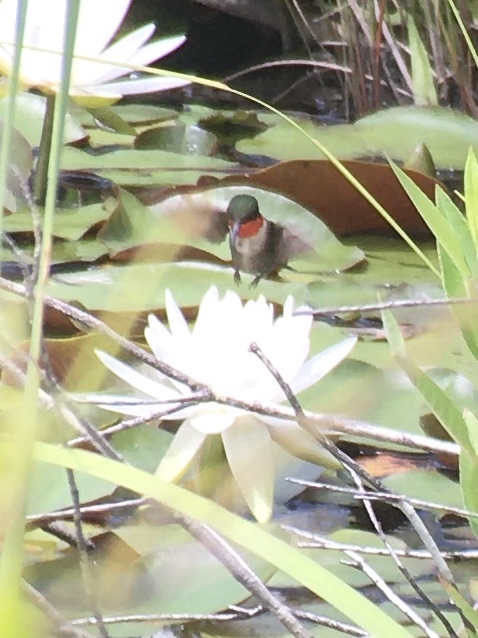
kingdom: Animalia
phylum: Chordata
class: Aves
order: Apodiformes
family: Trochilidae
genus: Archilochus
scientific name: Archilochus colubris
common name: Ruby-throated hummingbird
